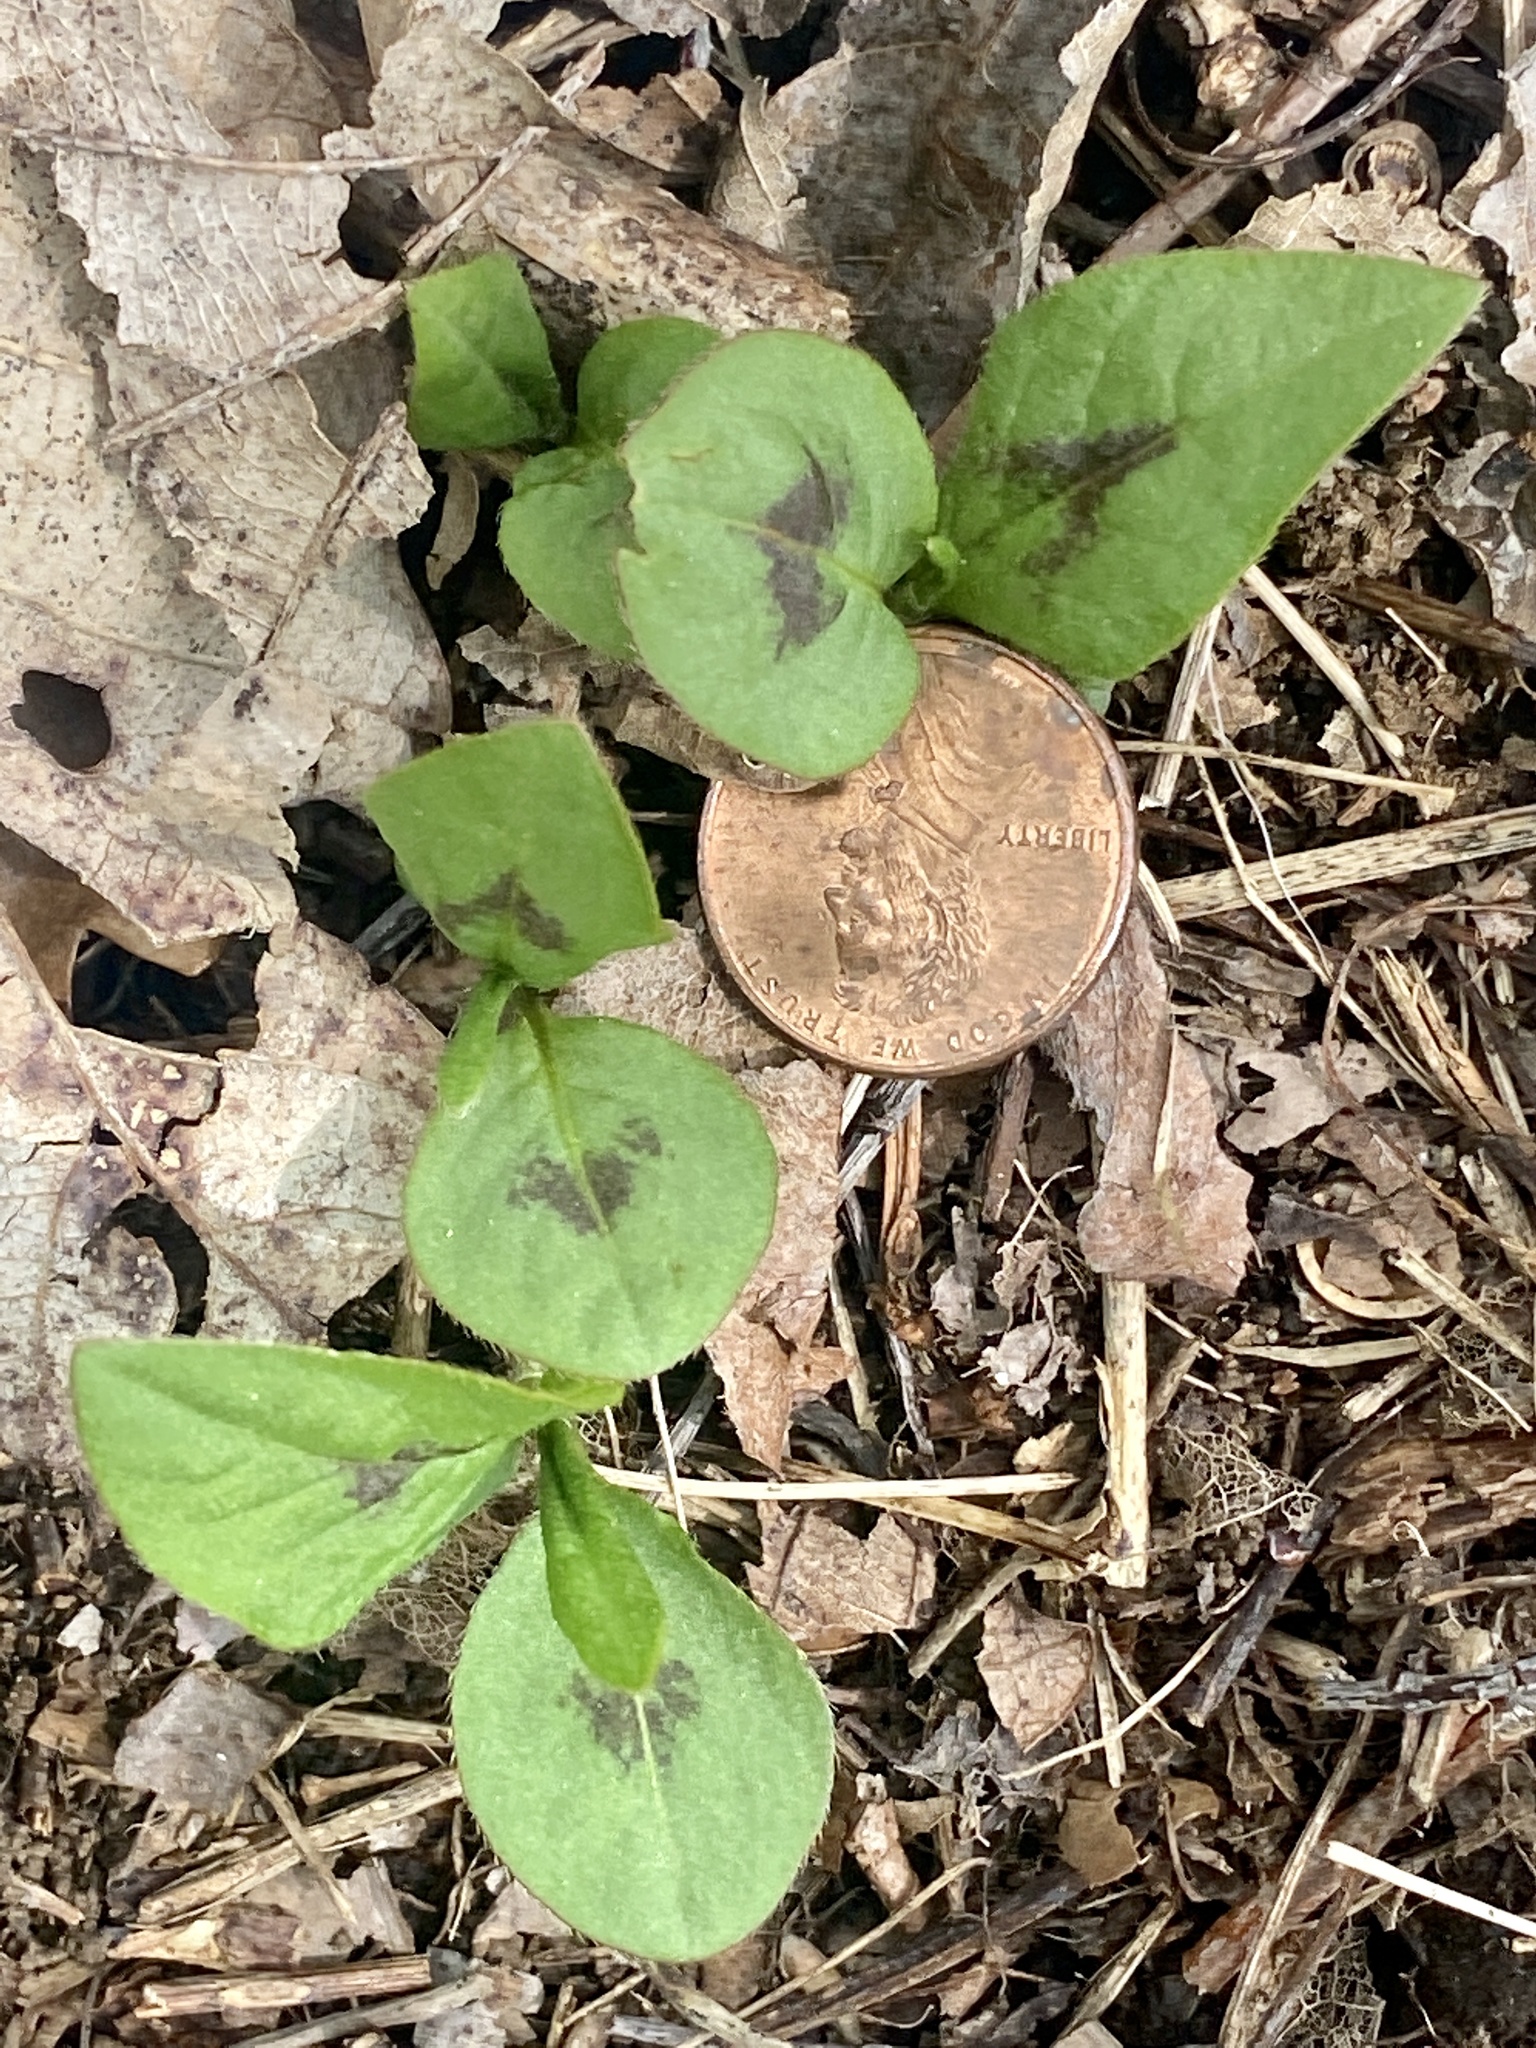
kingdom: Plantae
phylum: Tracheophyta
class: Magnoliopsida
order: Caryophyllales
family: Polygonaceae
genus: Persicaria
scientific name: Persicaria virginiana
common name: Jumpseed
